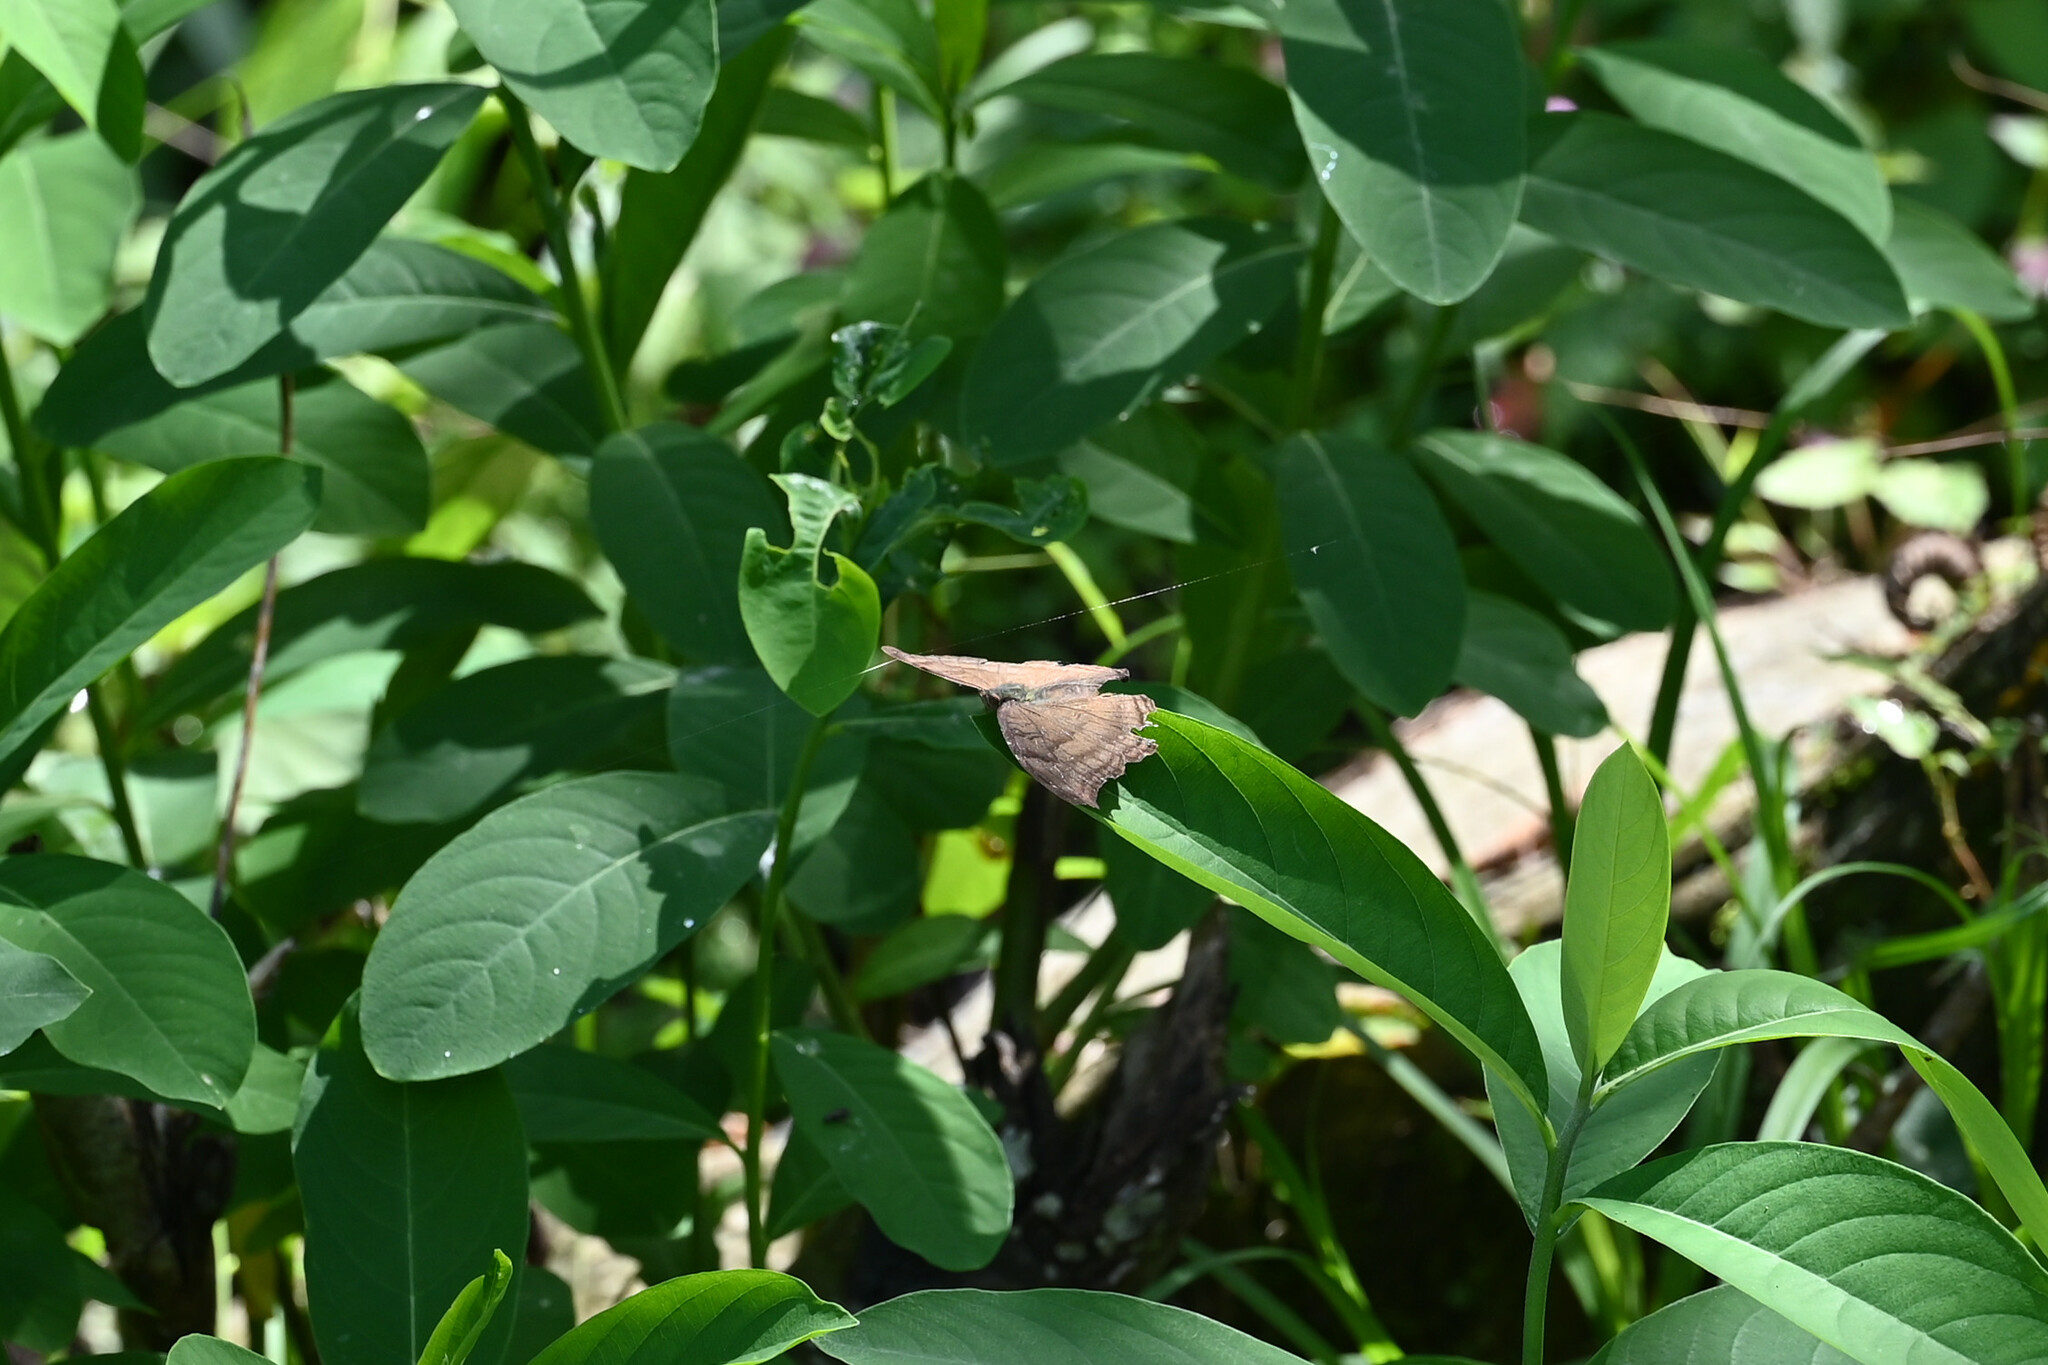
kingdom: Animalia
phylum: Arthropoda
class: Insecta
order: Lepidoptera
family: Nymphalidae
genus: Junonia
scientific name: Junonia iphita
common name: Chocolate pansy
